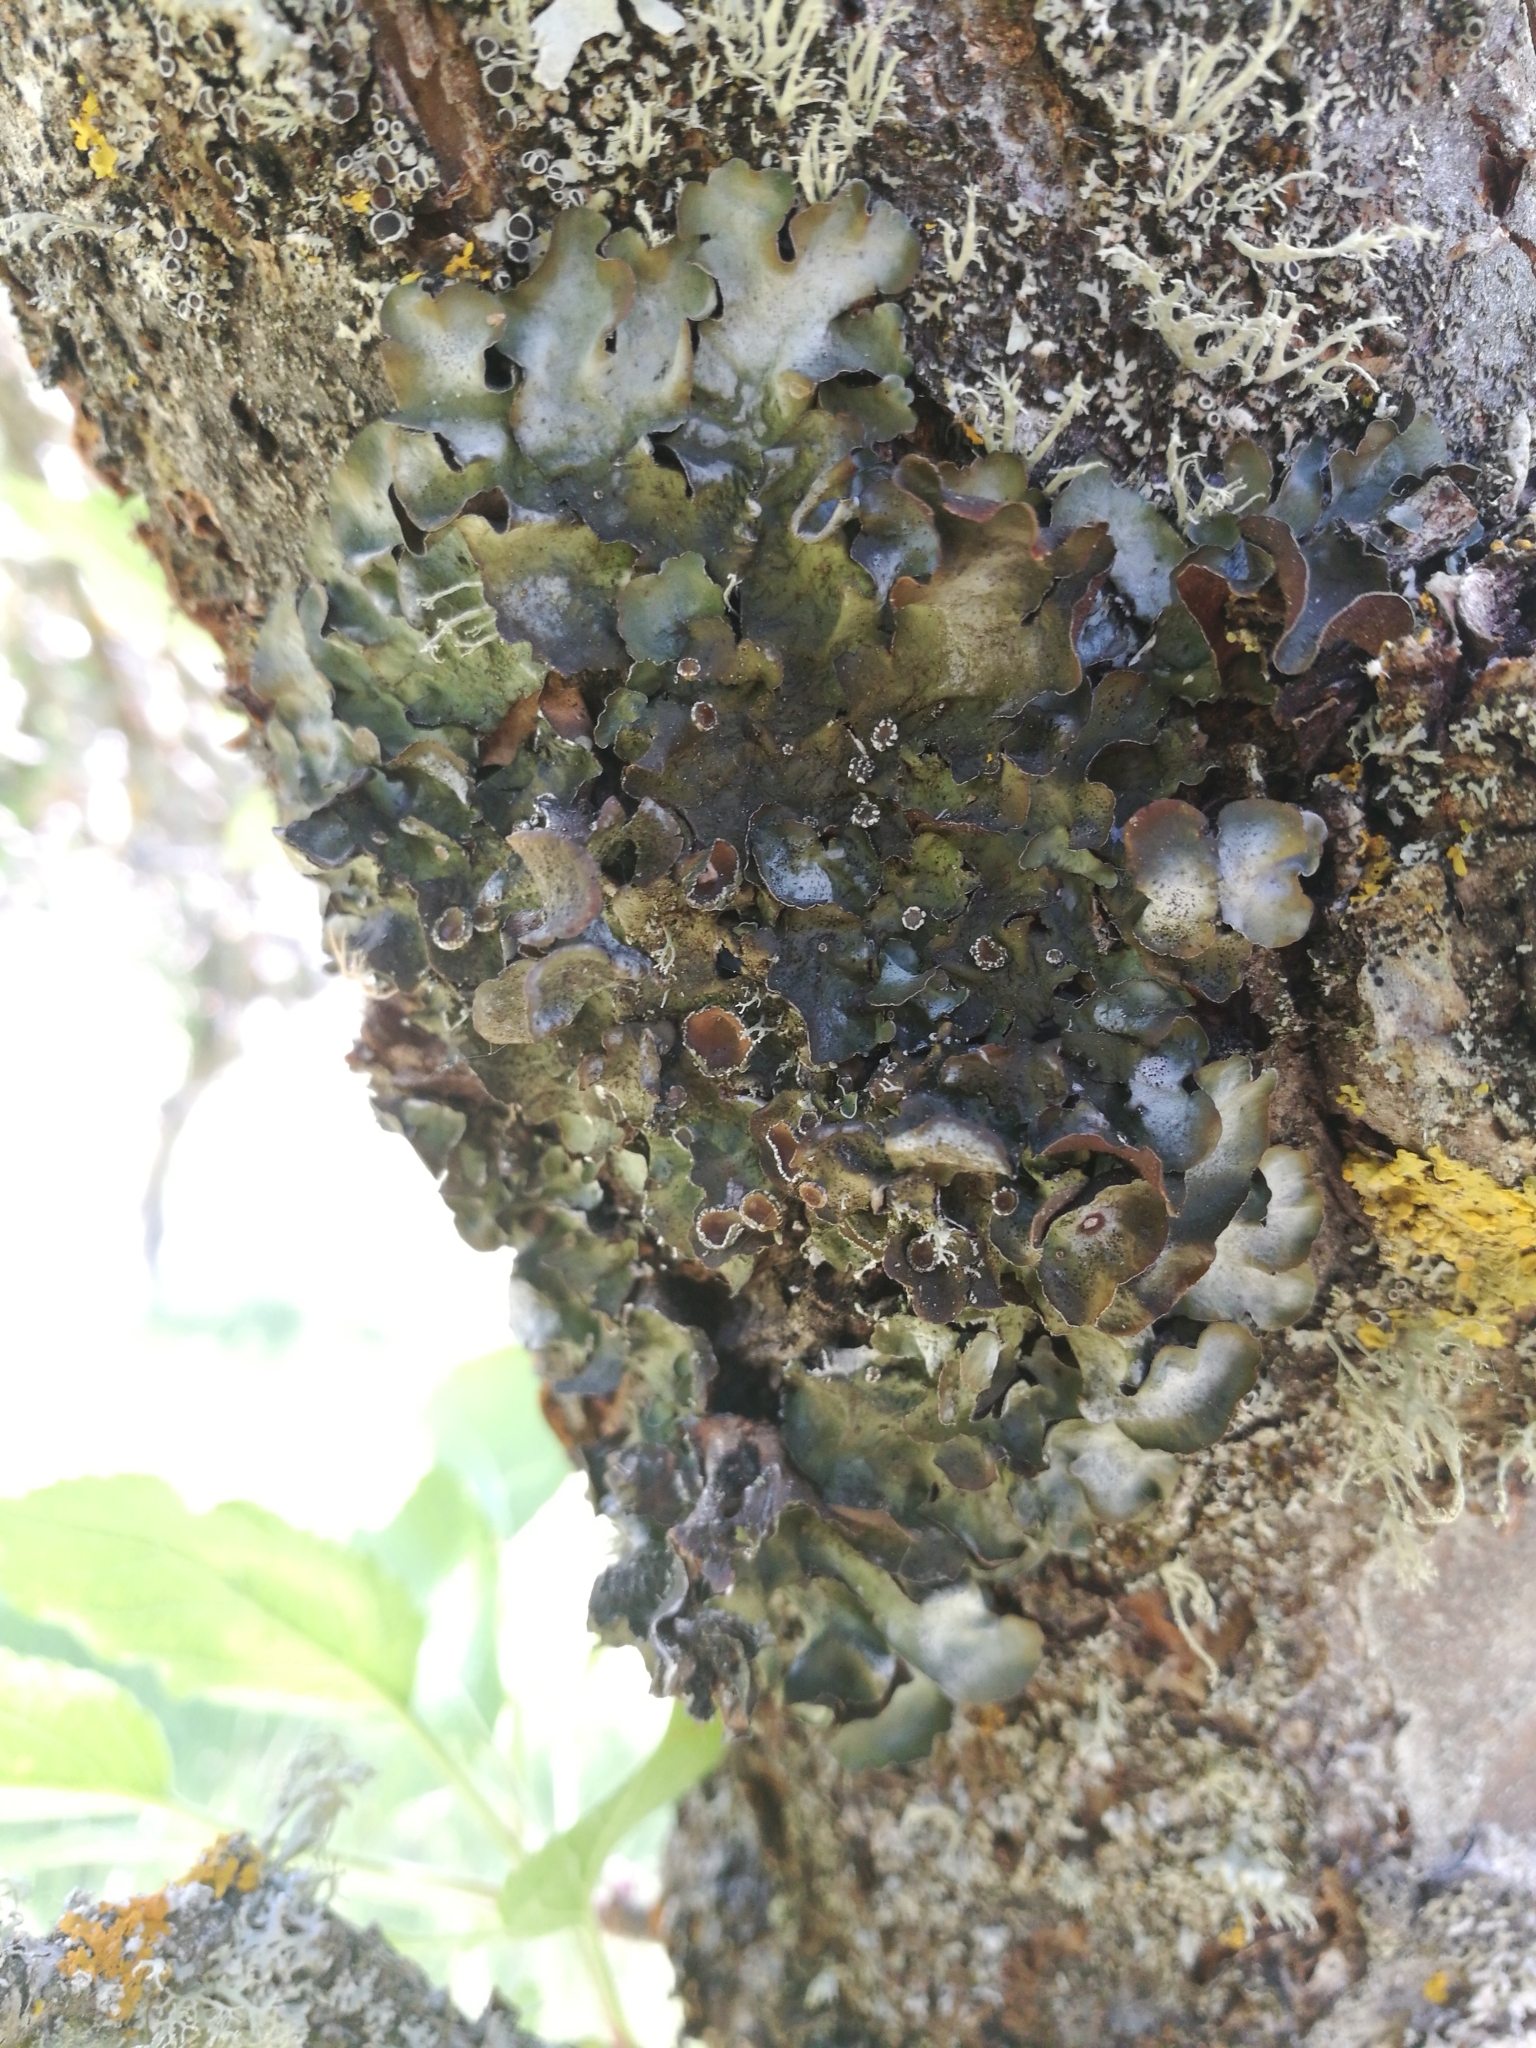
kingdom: Fungi
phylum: Ascomycota
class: Lecanoromycetes
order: Lecanorales
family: Parmeliaceae
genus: Pleurosticta
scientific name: Pleurosticta acetabulum
